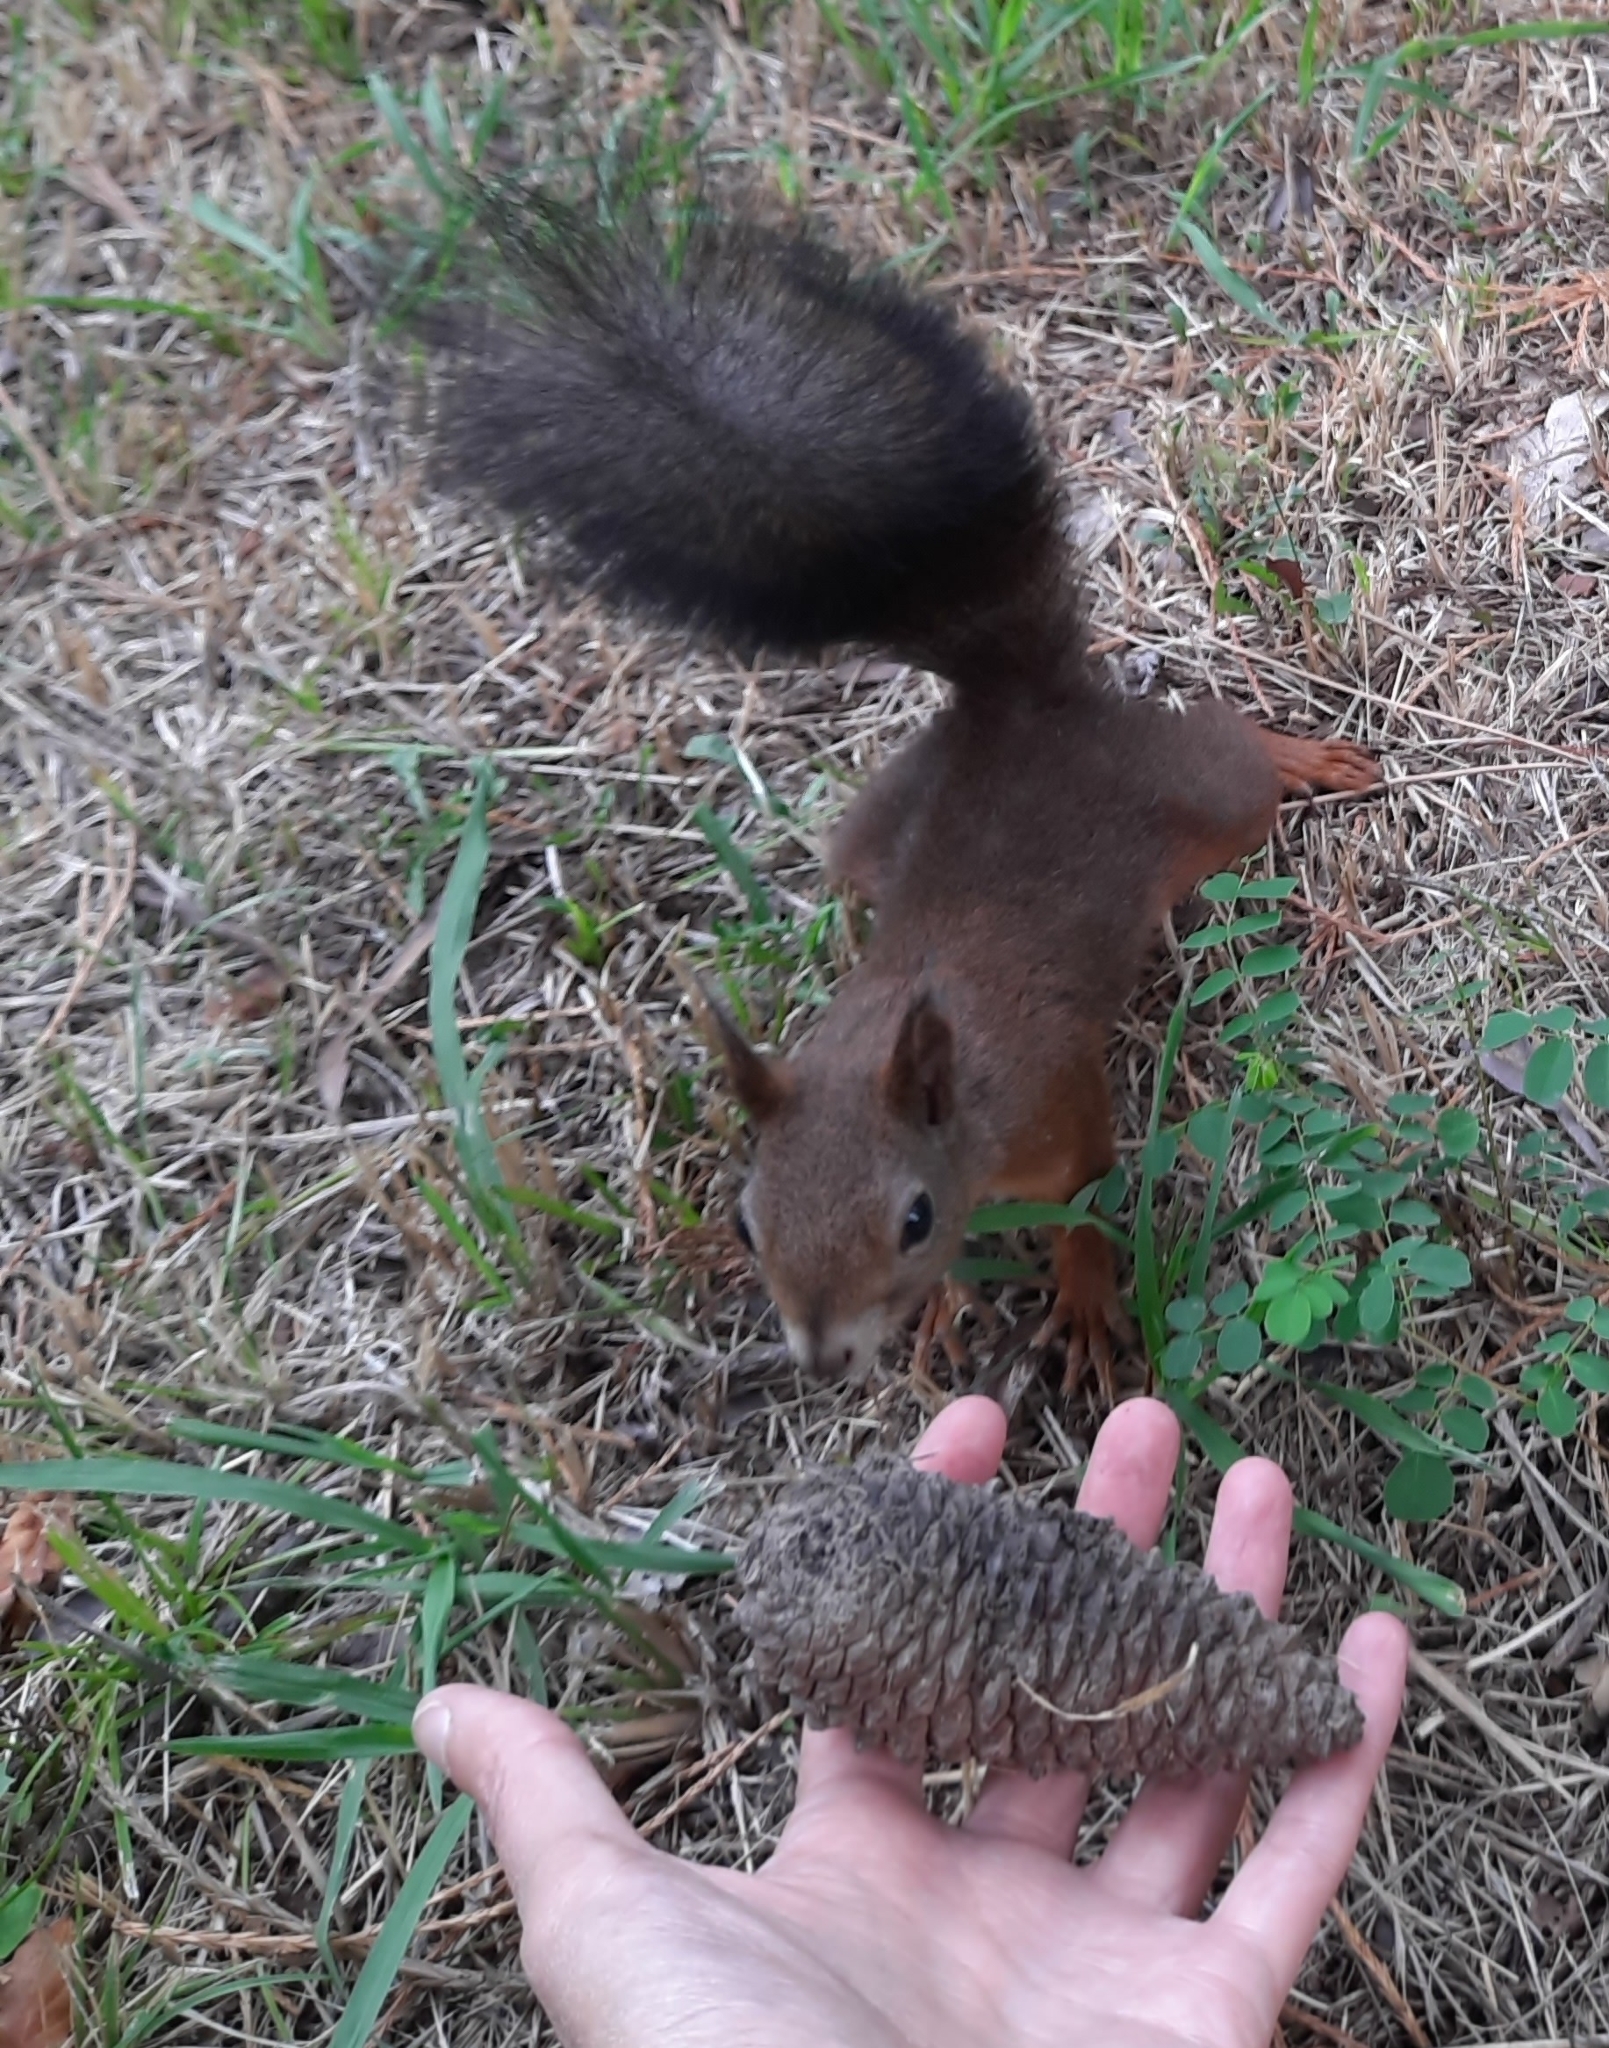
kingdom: Animalia
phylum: Chordata
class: Mammalia
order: Rodentia
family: Sciuridae
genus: Sciurus
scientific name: Sciurus vulgaris
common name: Eurasian red squirrel
